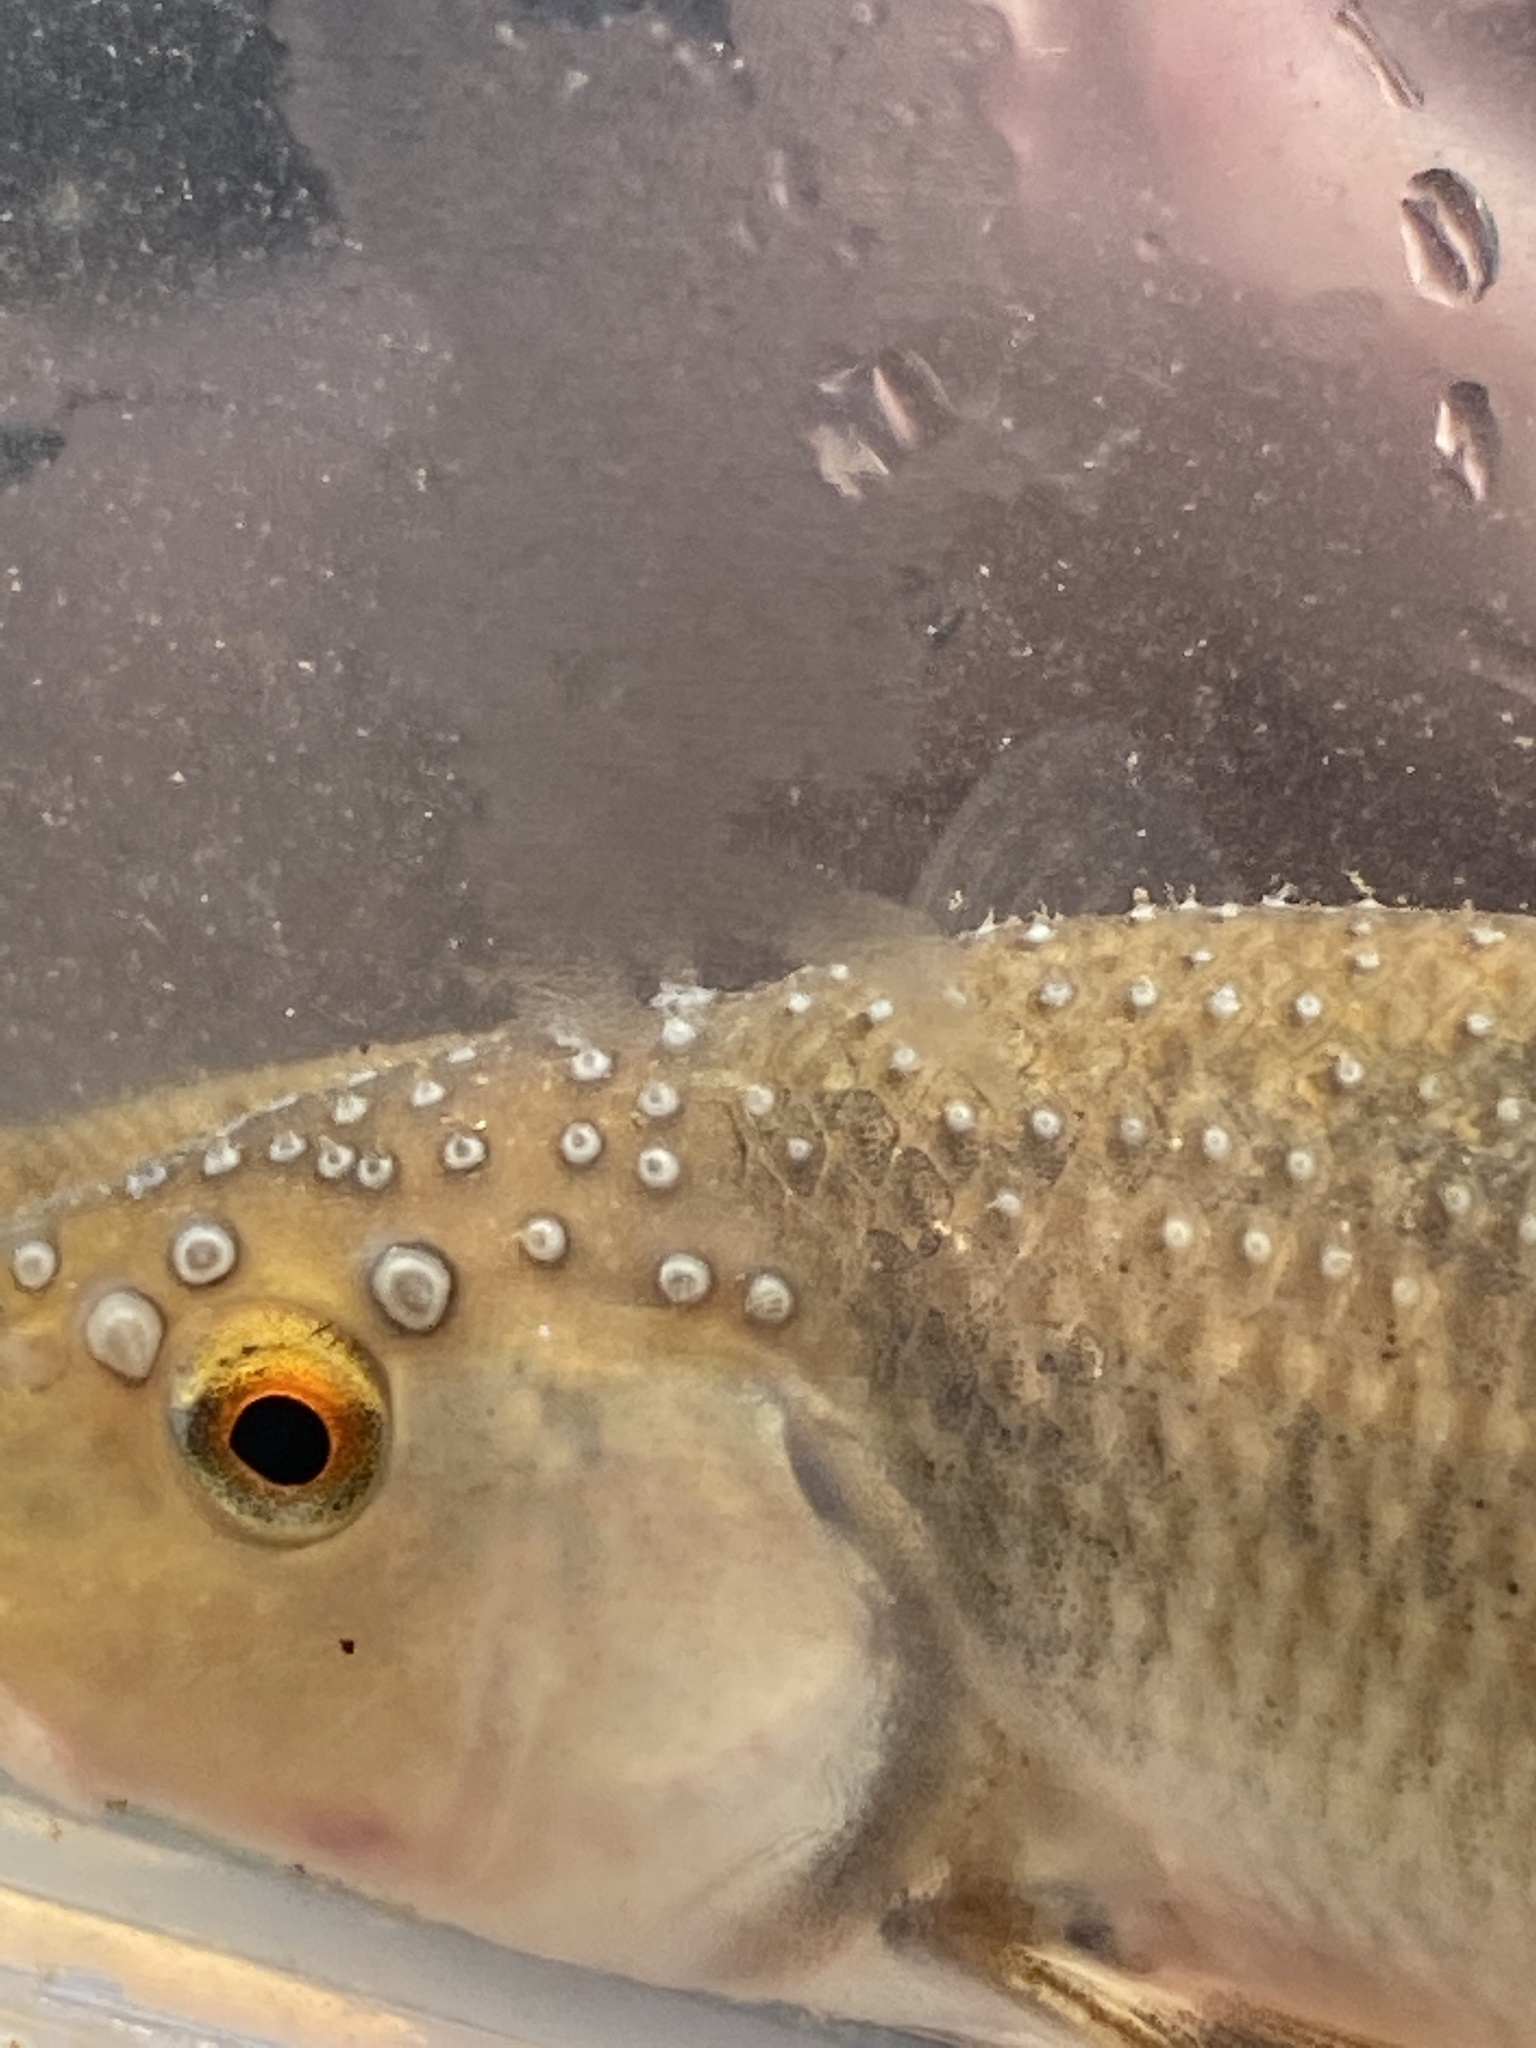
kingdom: Animalia
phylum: Chordata
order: Cypriniformes
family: Cyprinidae
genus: Campostoma
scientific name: Campostoma spadiceum
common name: Highland stoneroller
